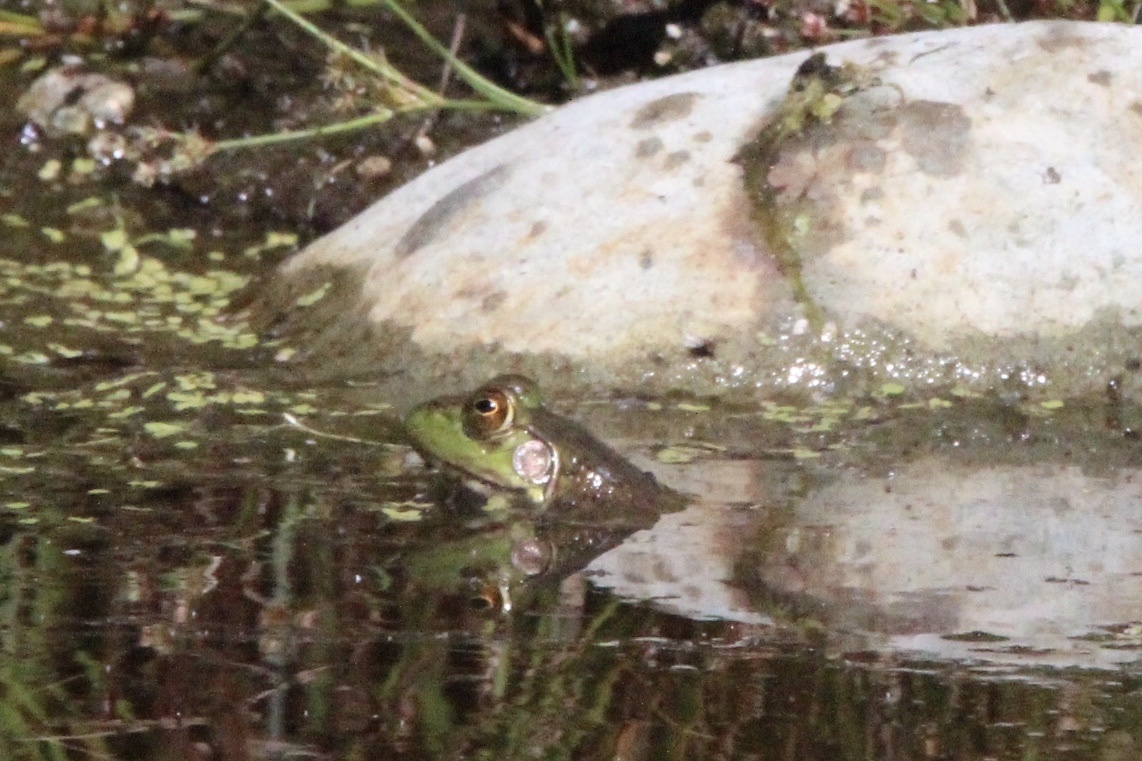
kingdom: Animalia
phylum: Chordata
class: Amphibia
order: Anura
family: Ranidae
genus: Lithobates
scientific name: Lithobates catesbeianus
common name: American bullfrog
